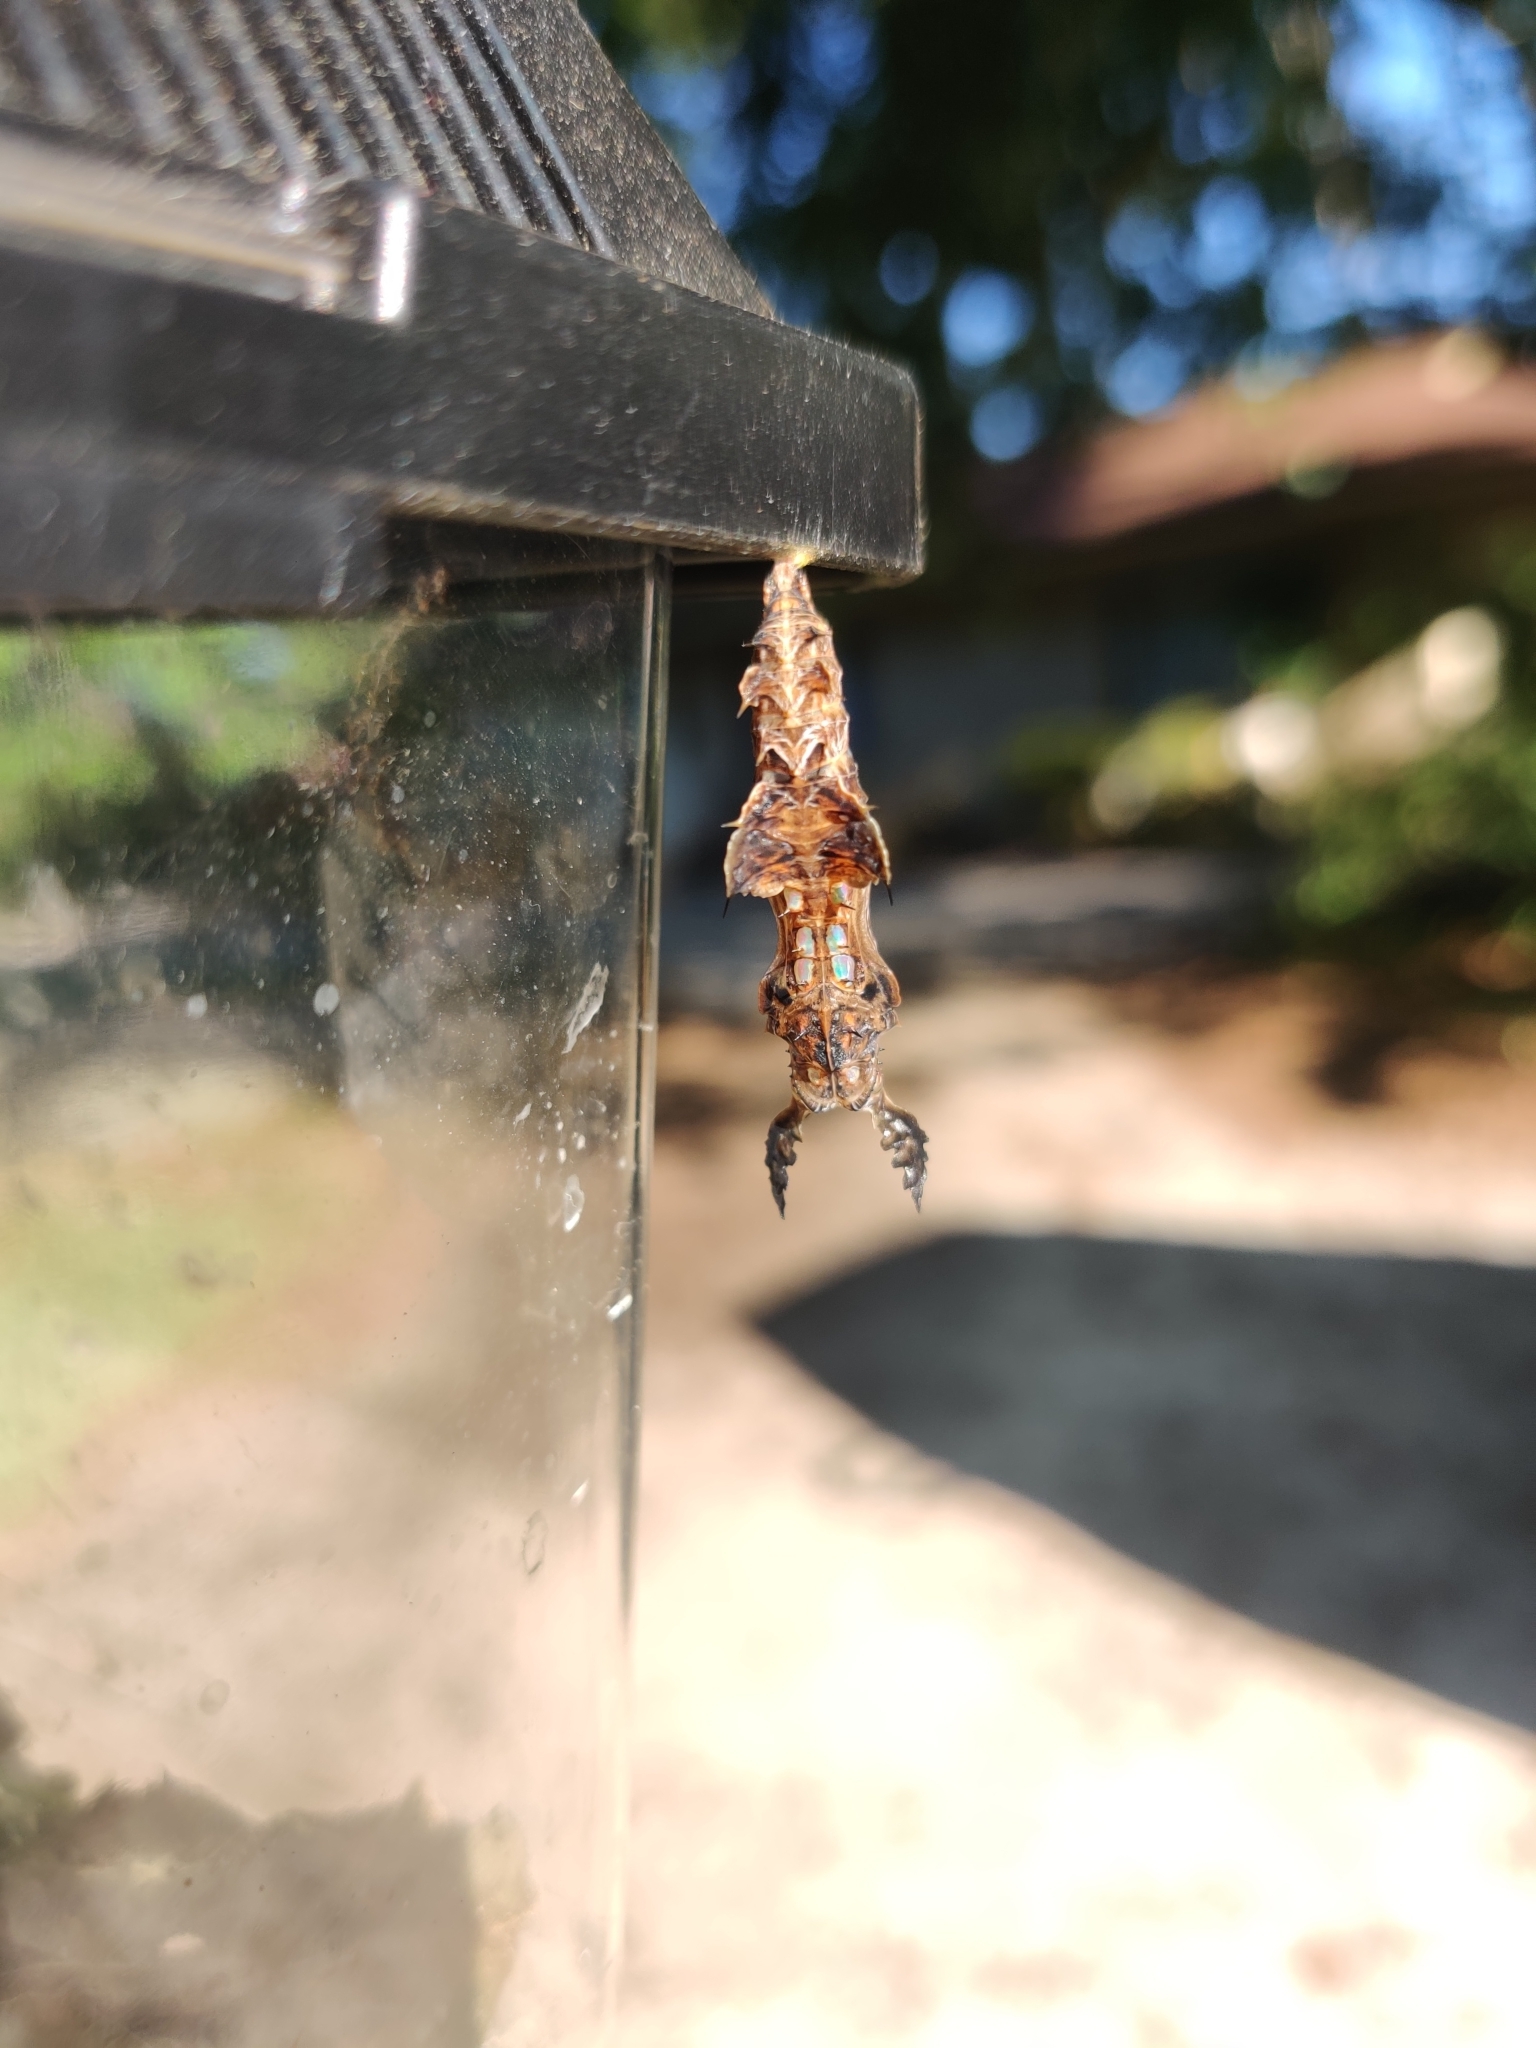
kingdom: Animalia
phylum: Arthropoda
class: Insecta
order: Lepidoptera
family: Nymphalidae
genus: Heliconius
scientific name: Heliconius charithonia
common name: Zebra long wing
